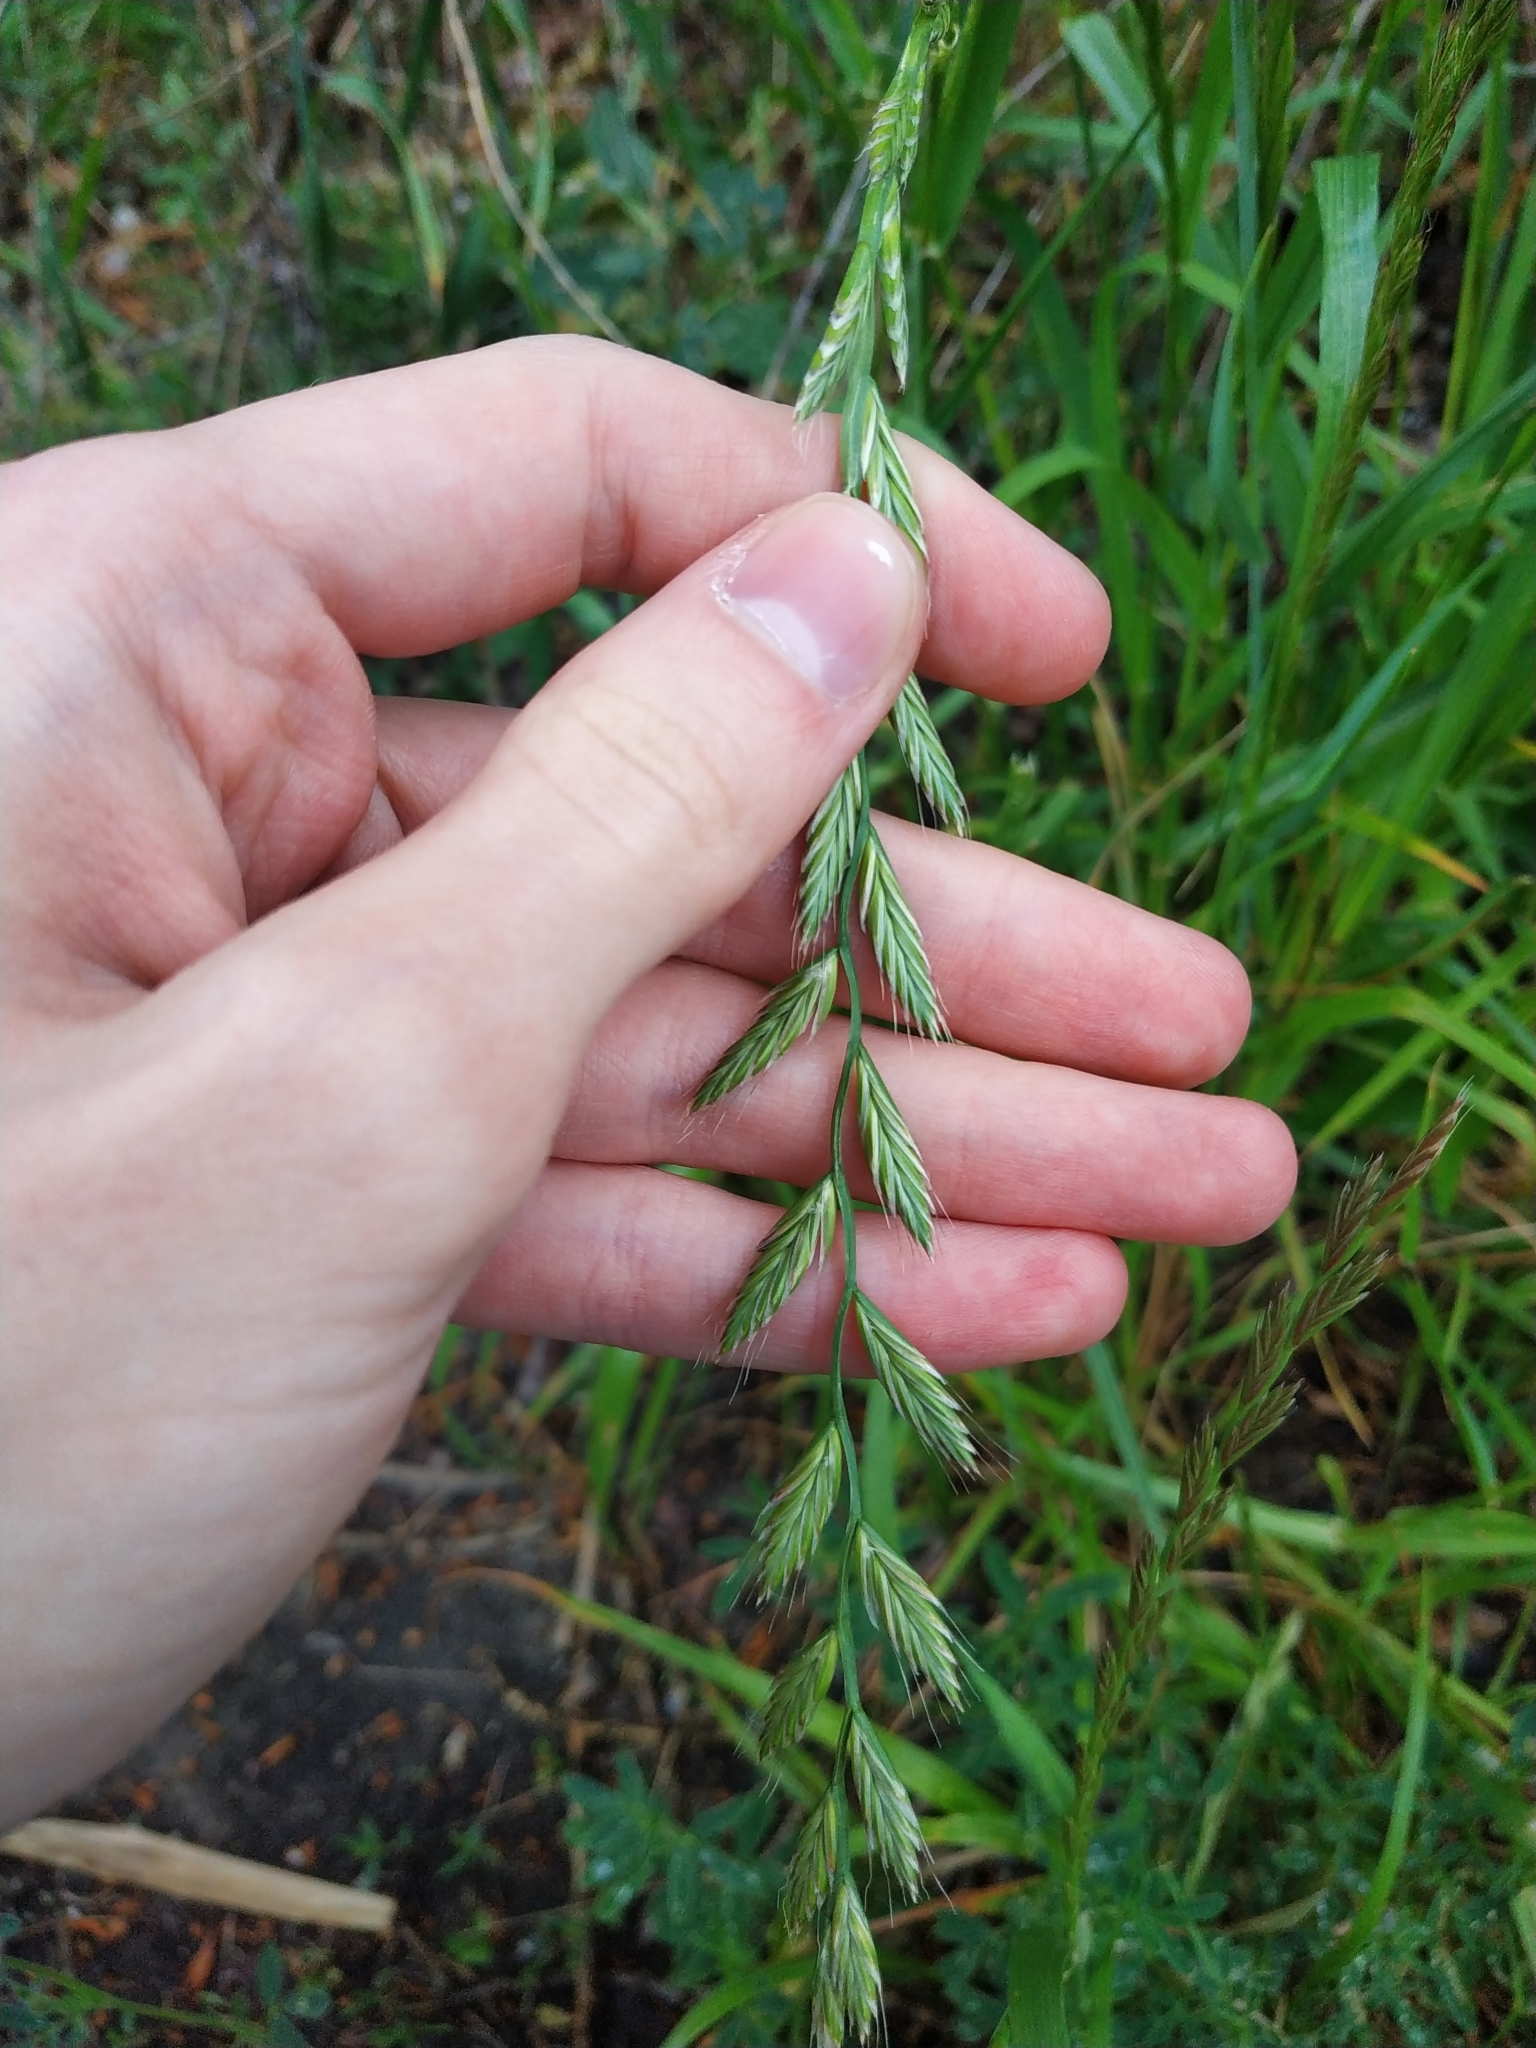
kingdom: Plantae
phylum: Tracheophyta
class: Liliopsida
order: Poales
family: Poaceae
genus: Lolium
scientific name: Lolium perenne
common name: Perennial ryegrass
